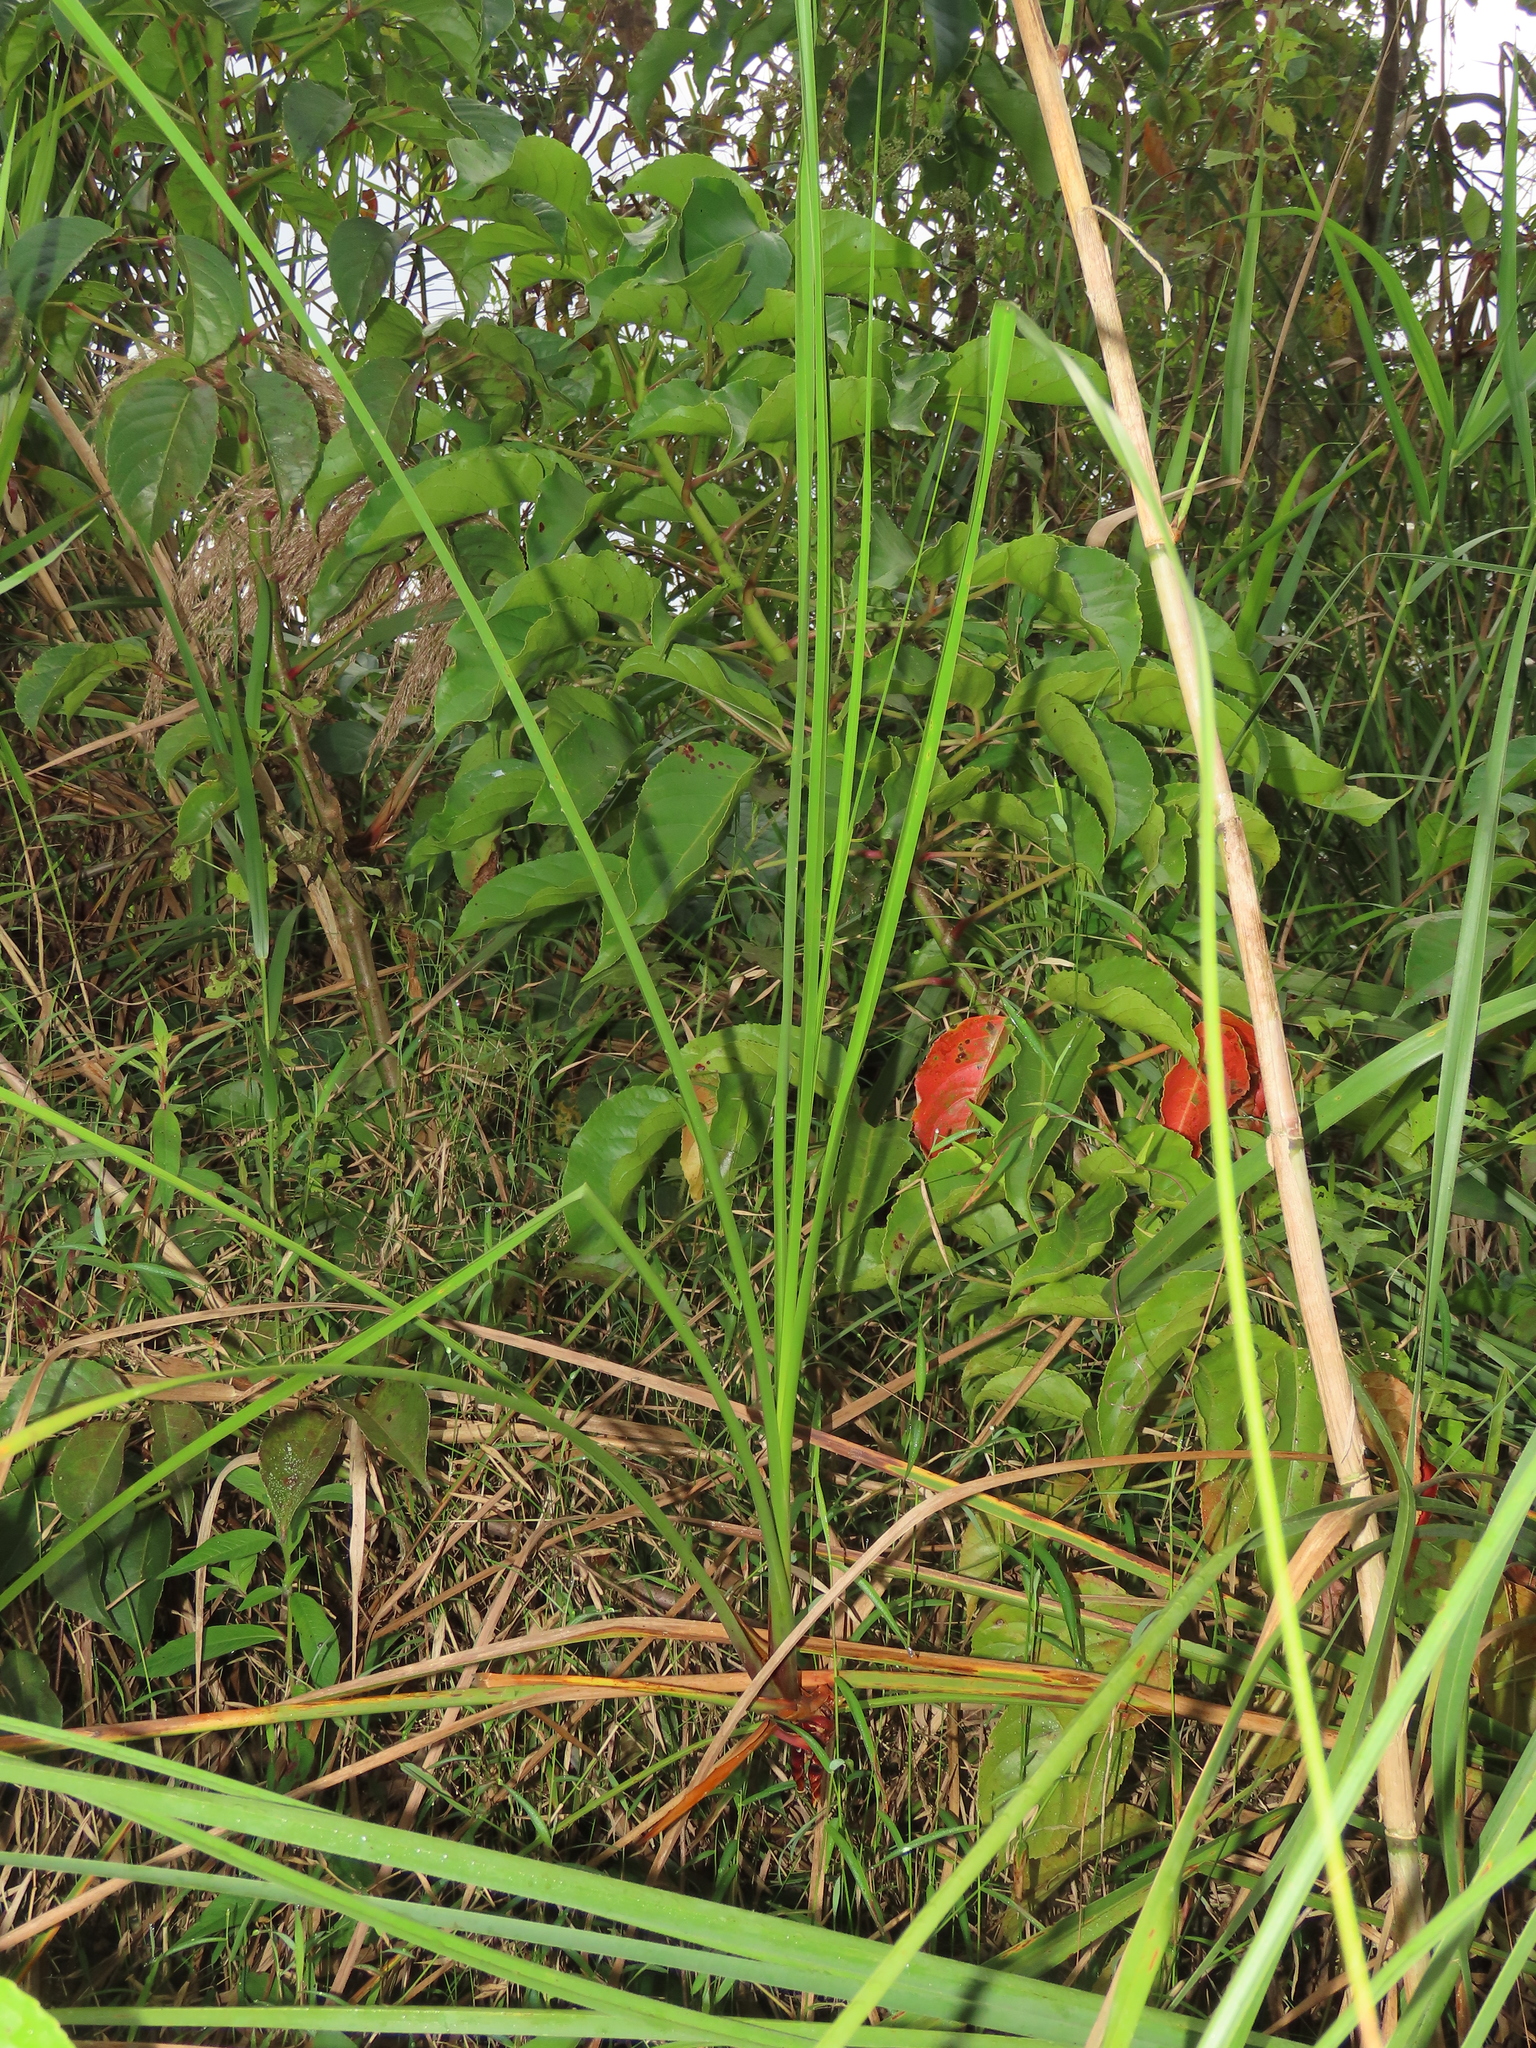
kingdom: Plantae
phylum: Tracheophyta
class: Liliopsida
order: Poales
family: Cyperaceae
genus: Cladium
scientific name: Cladium mariscus
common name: Great fen-sedge
